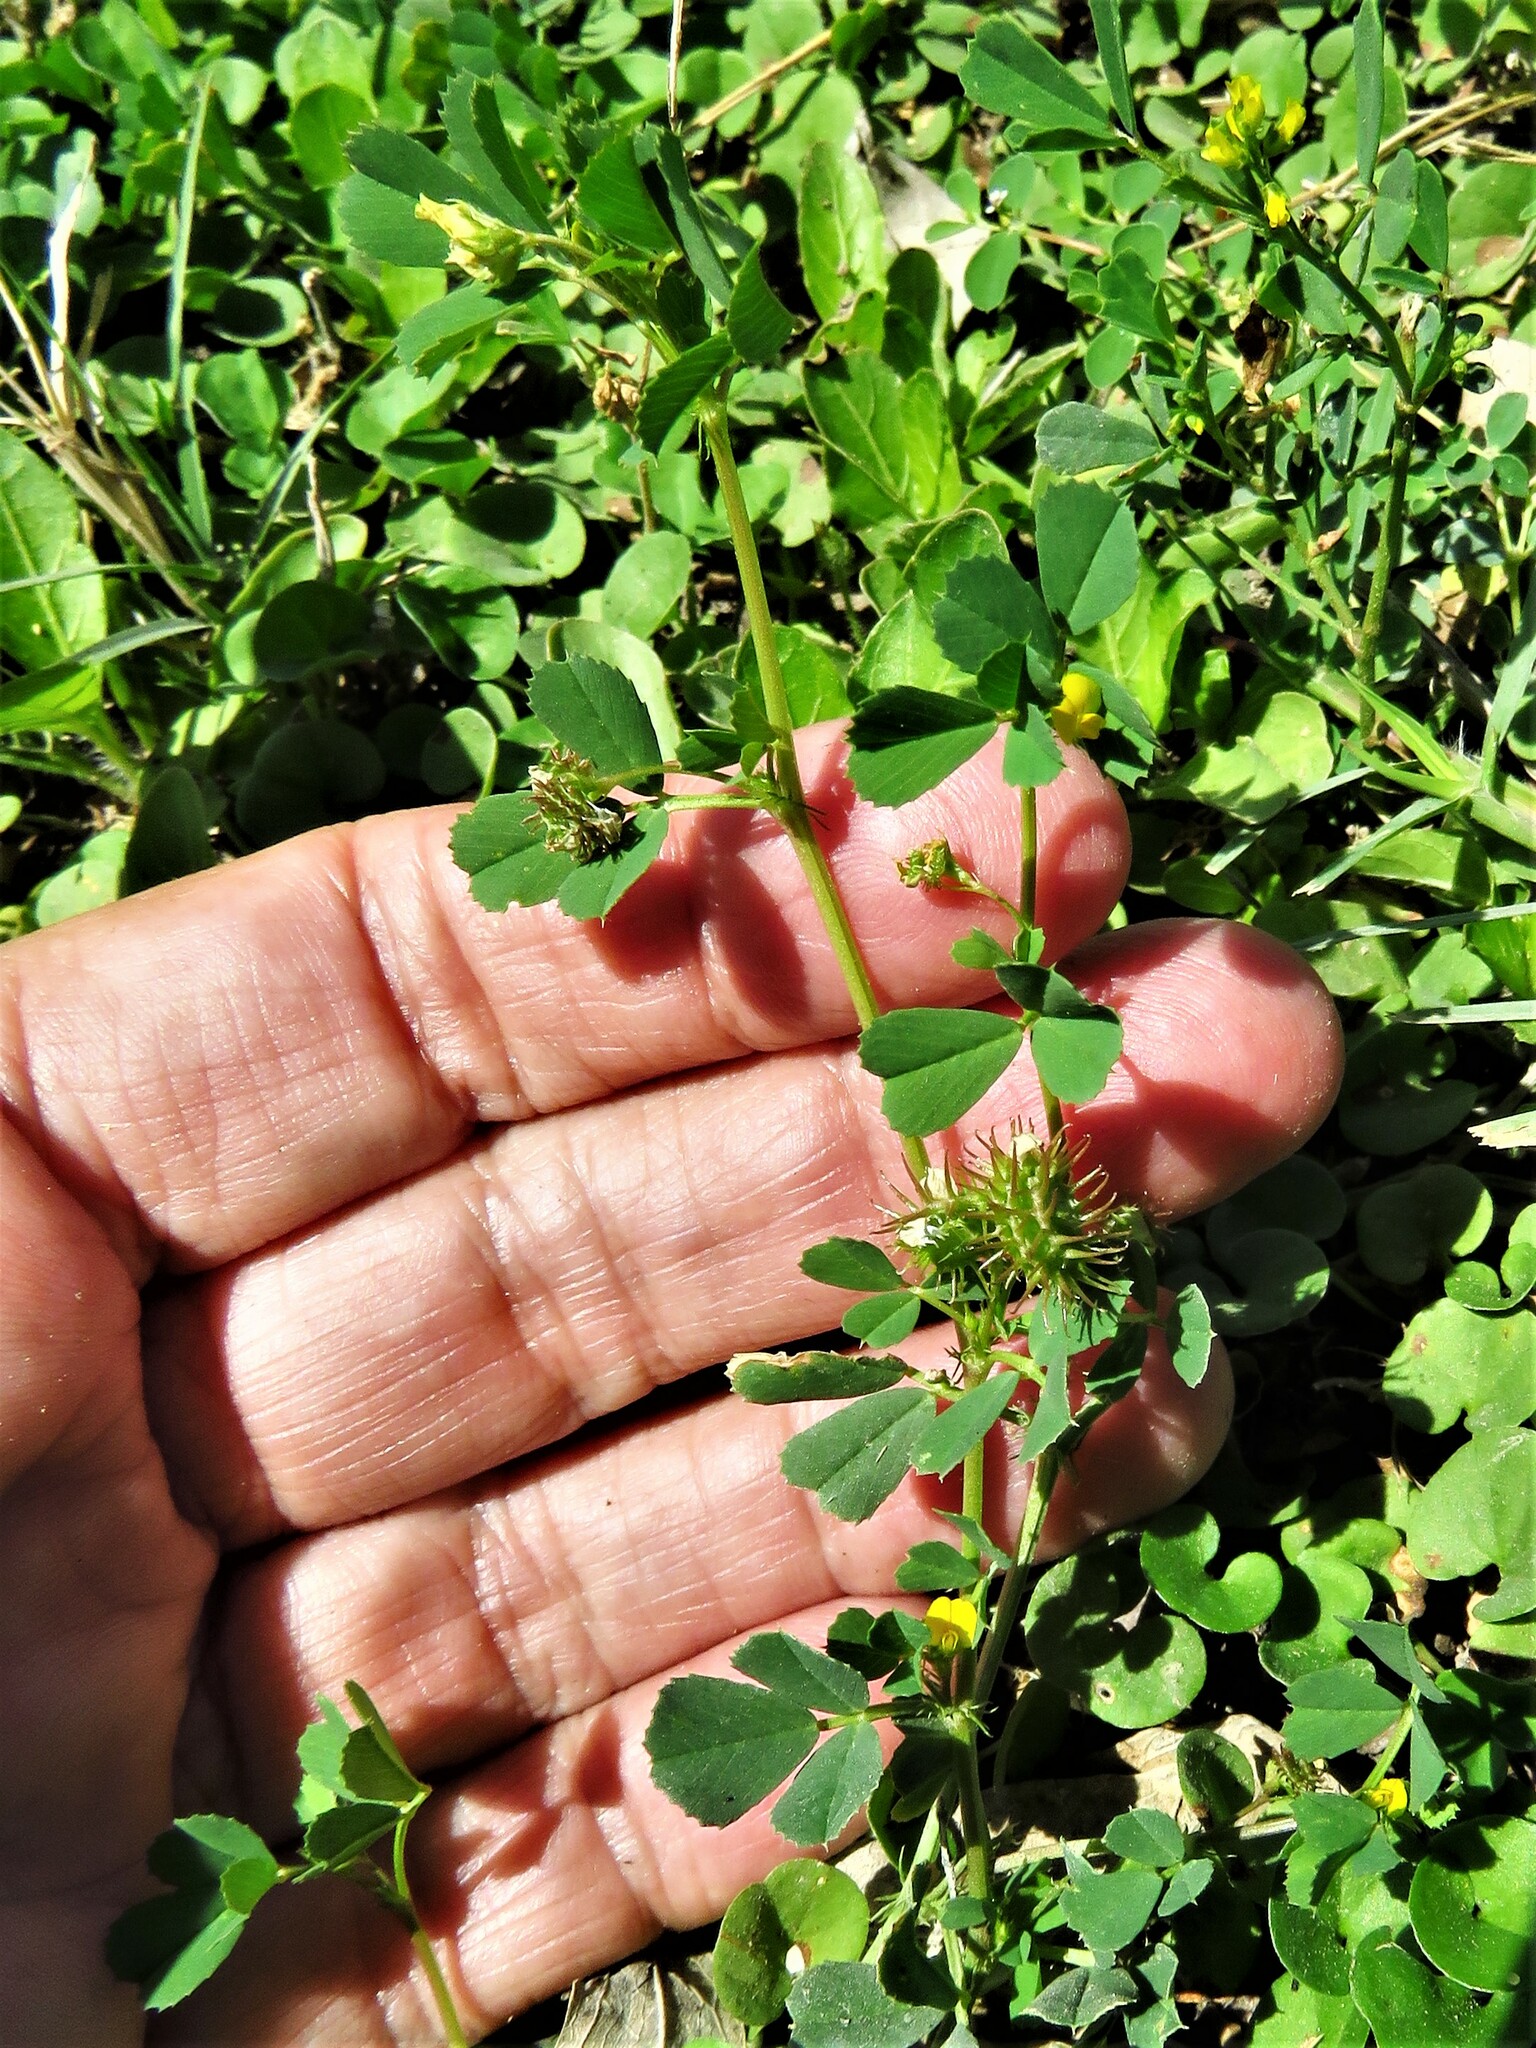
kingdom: Plantae
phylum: Tracheophyta
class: Magnoliopsida
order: Fabales
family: Fabaceae
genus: Medicago
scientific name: Medicago polymorpha
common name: Burclover
